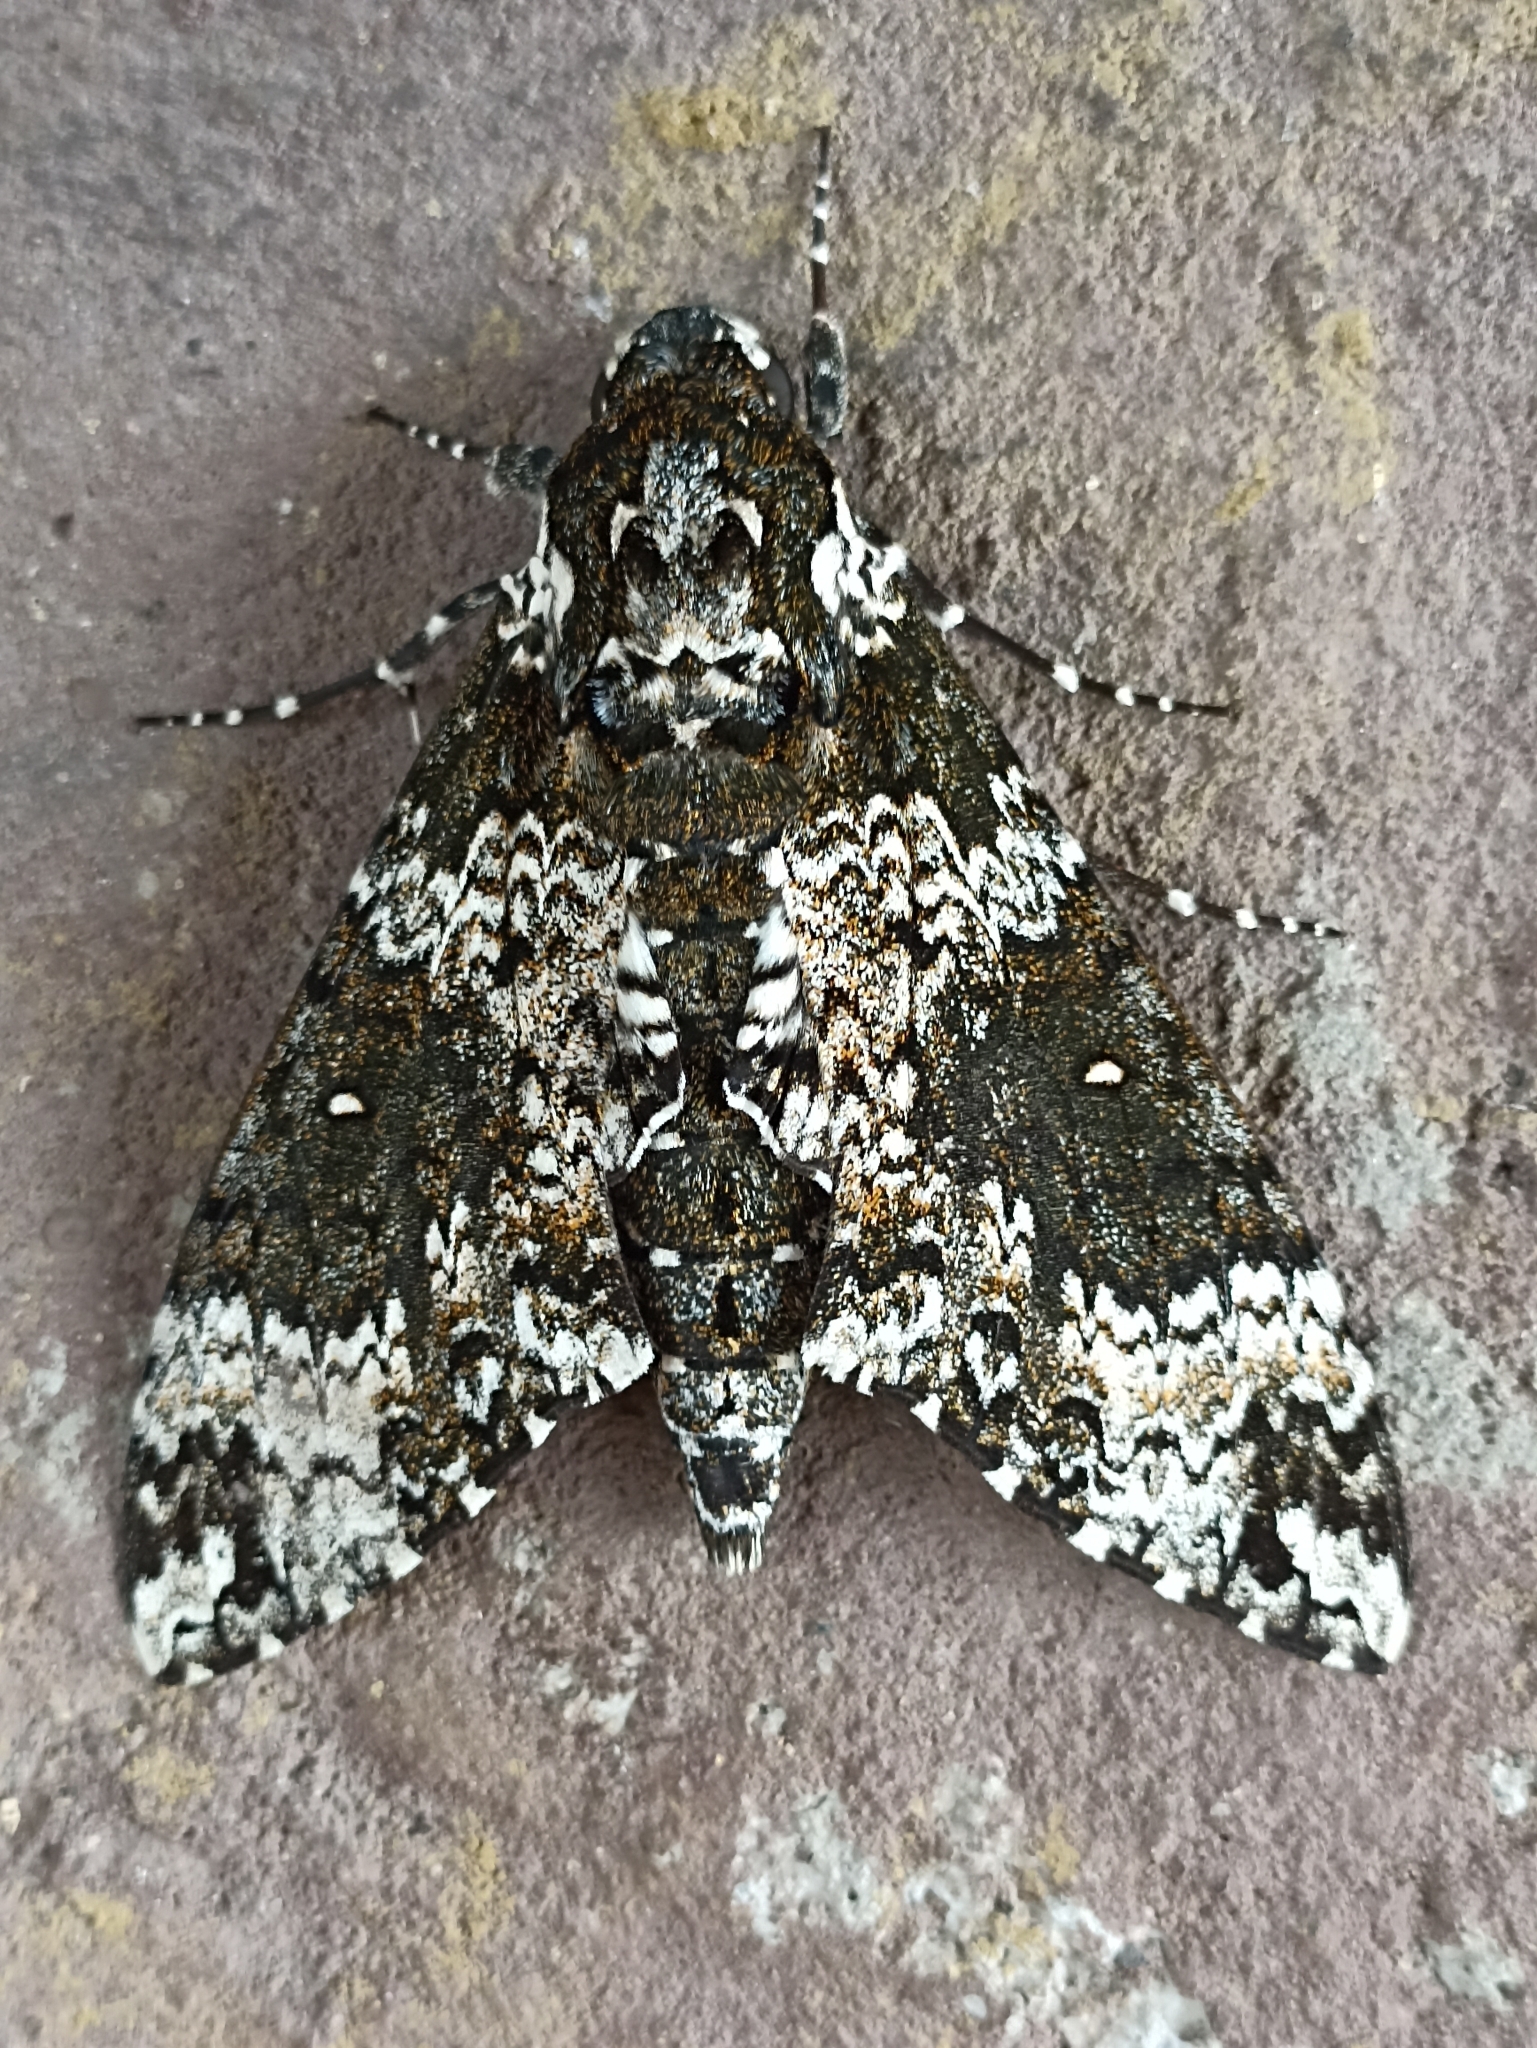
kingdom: Animalia
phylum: Arthropoda
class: Insecta
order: Lepidoptera
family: Sphingidae
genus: Manduca
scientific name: Manduca rustica
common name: Rustic sphinx
